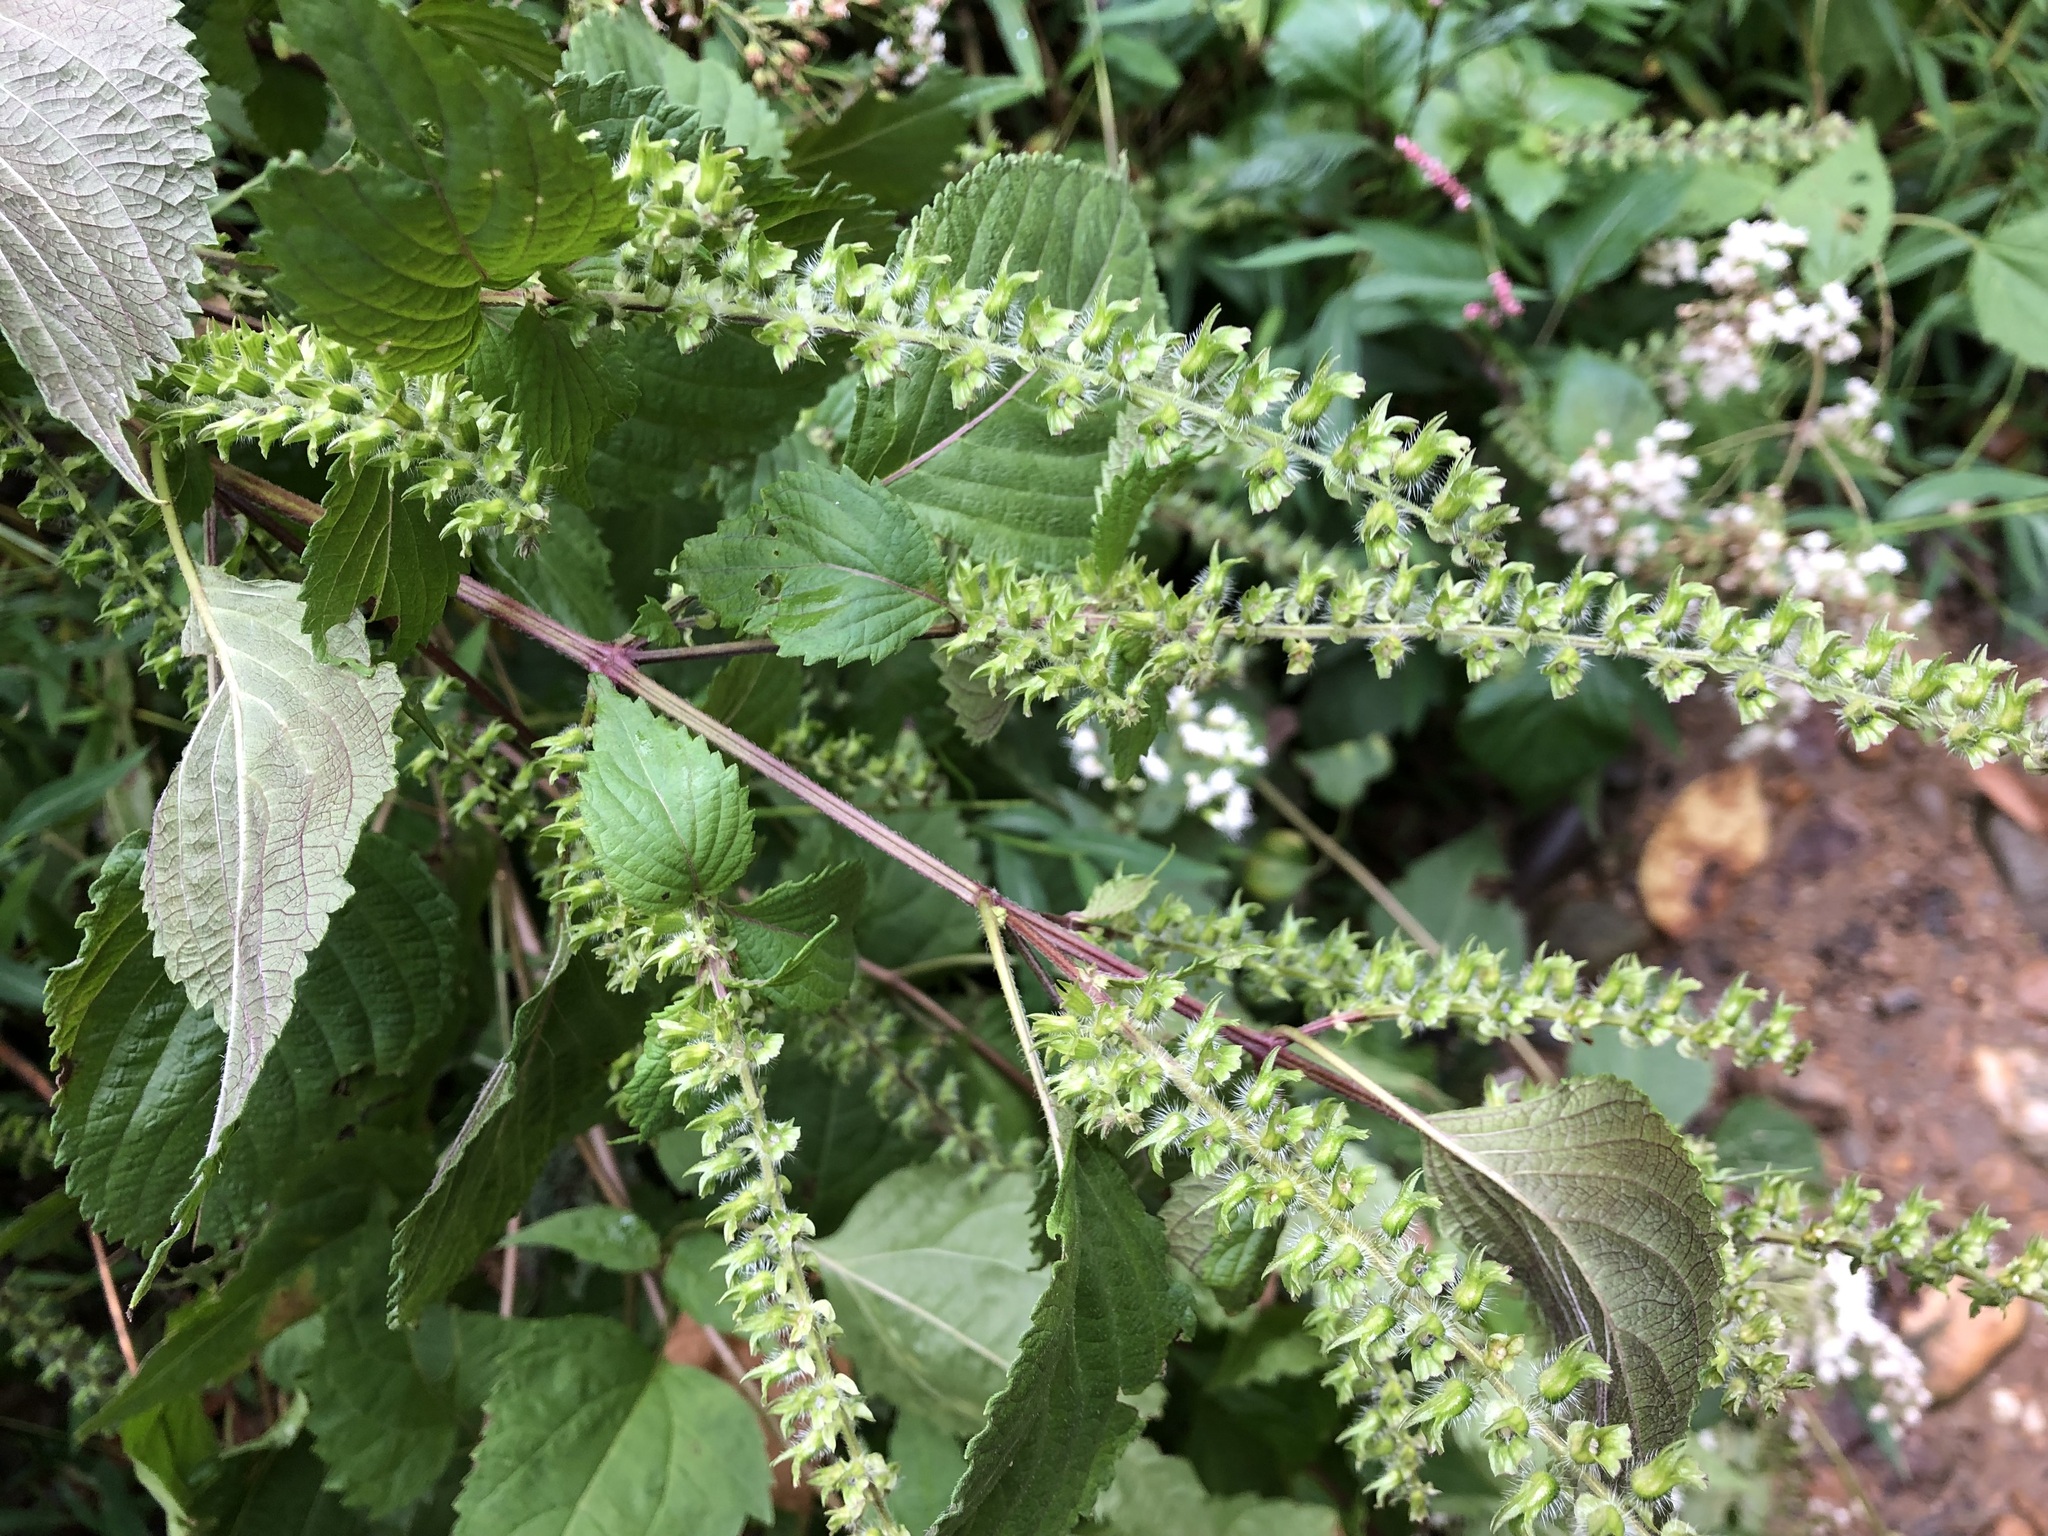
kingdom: Plantae
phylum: Tracheophyta
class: Magnoliopsida
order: Lamiales
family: Lamiaceae
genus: Perilla
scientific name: Perilla frutescens
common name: Perilla
